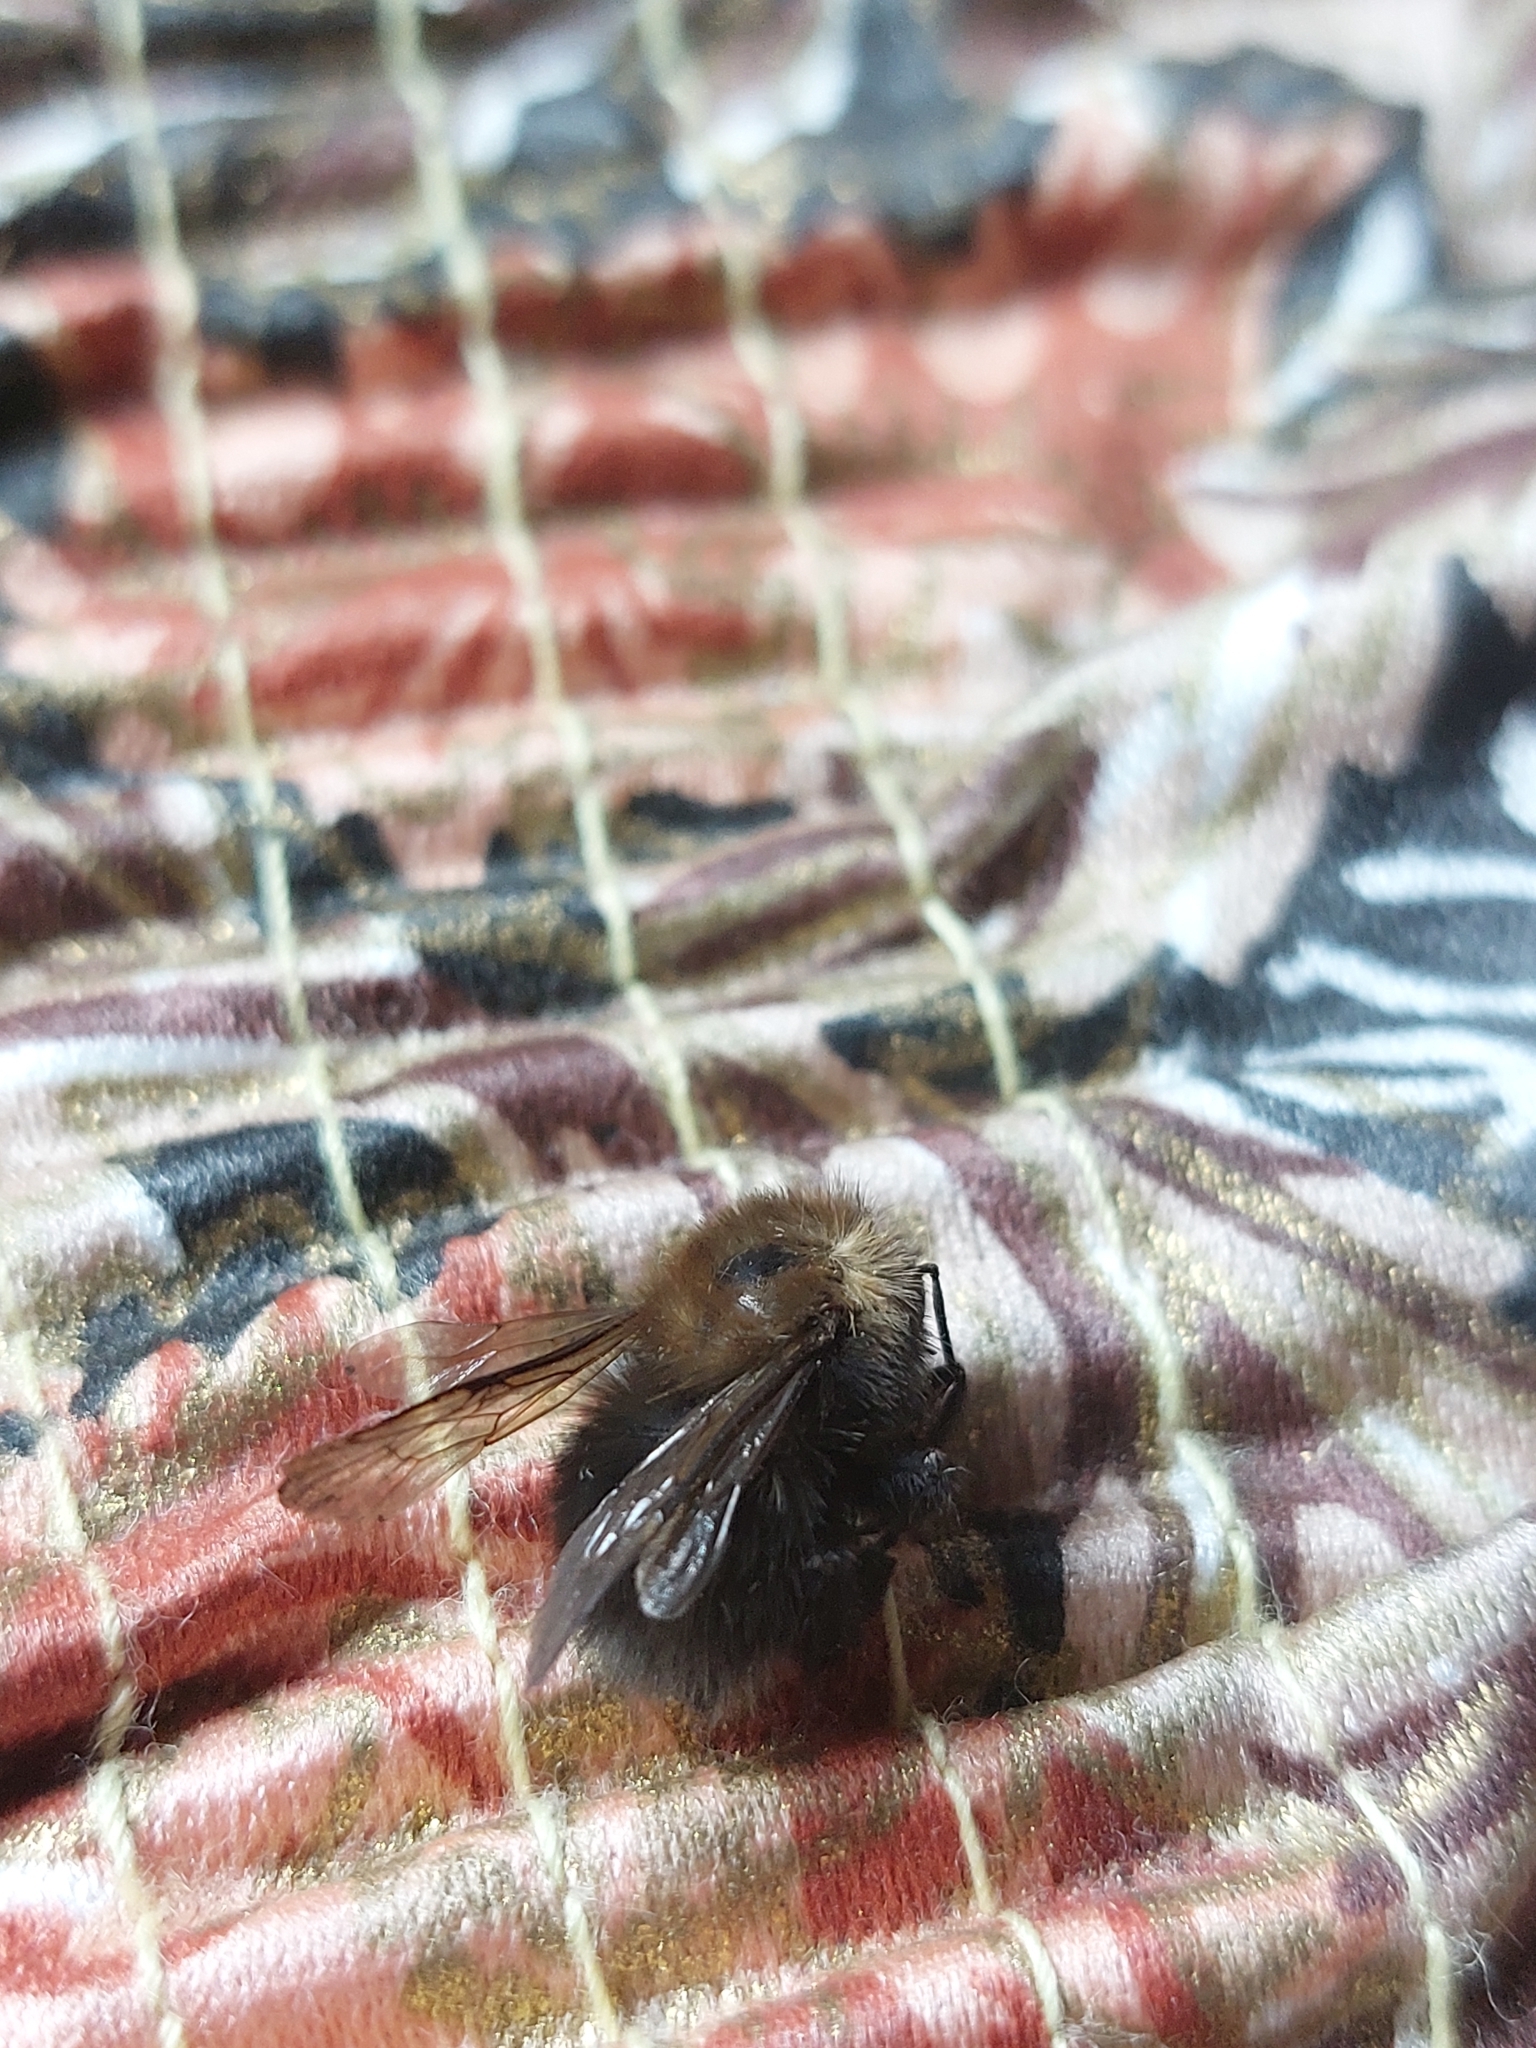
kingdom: Animalia
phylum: Arthropoda
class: Insecta
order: Hymenoptera
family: Apidae
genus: Bombus
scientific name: Bombus hypnorum
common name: New garden bumblebee
